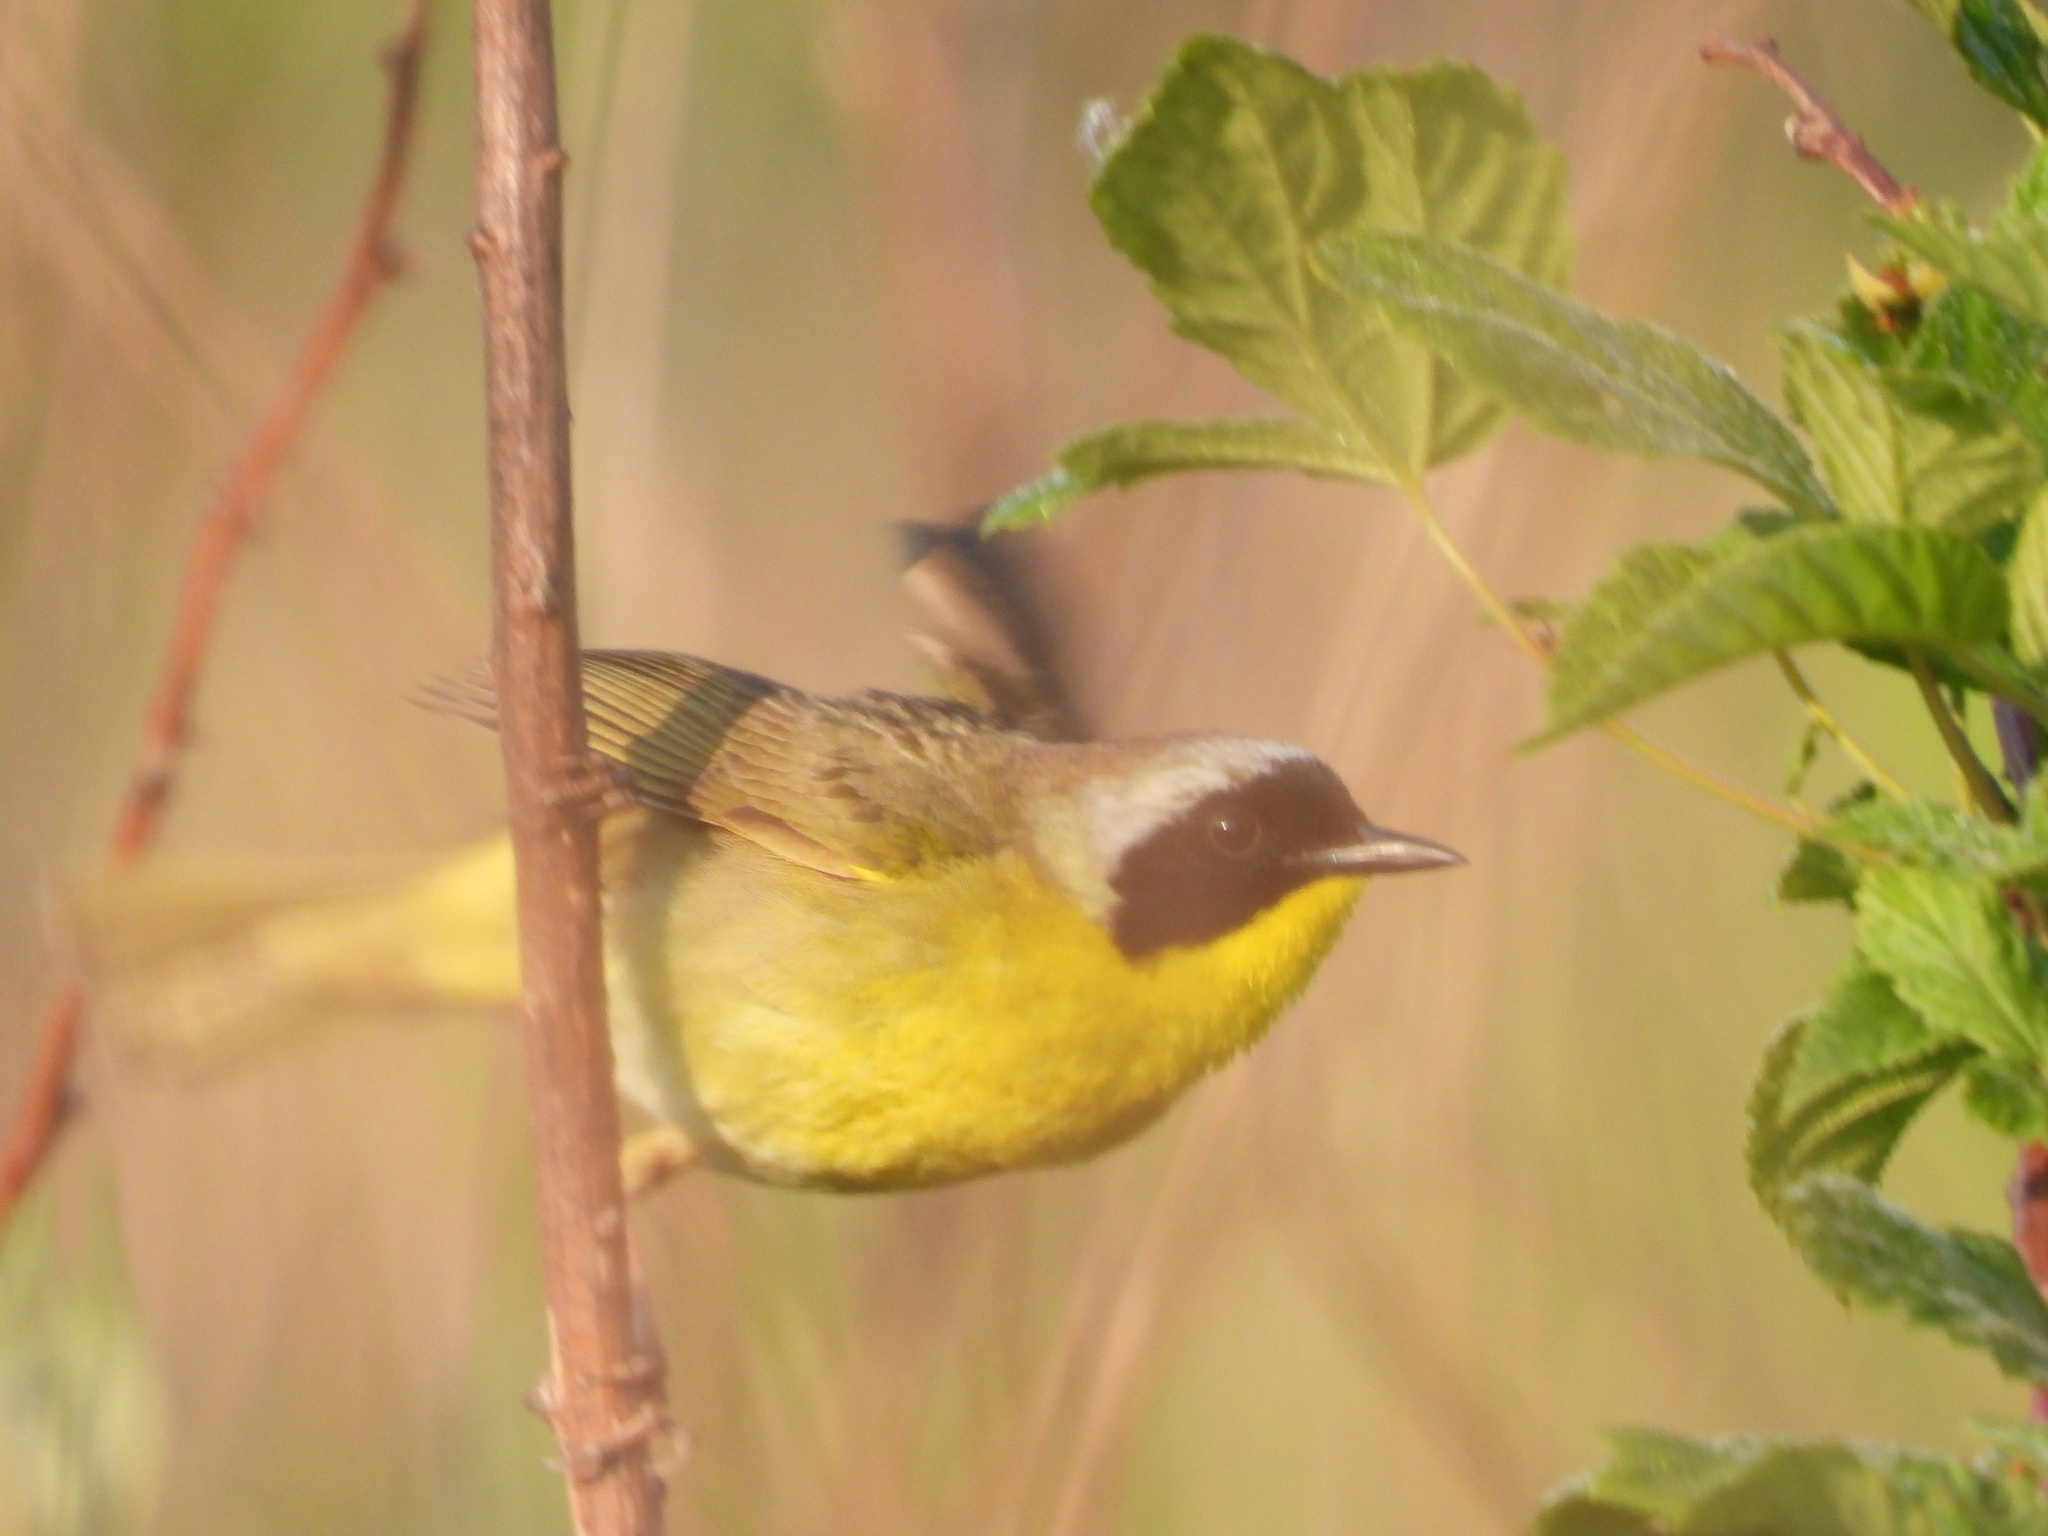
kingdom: Animalia
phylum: Chordata
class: Aves
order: Passeriformes
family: Parulidae
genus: Geothlypis
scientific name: Geothlypis trichas
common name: Common yellowthroat
